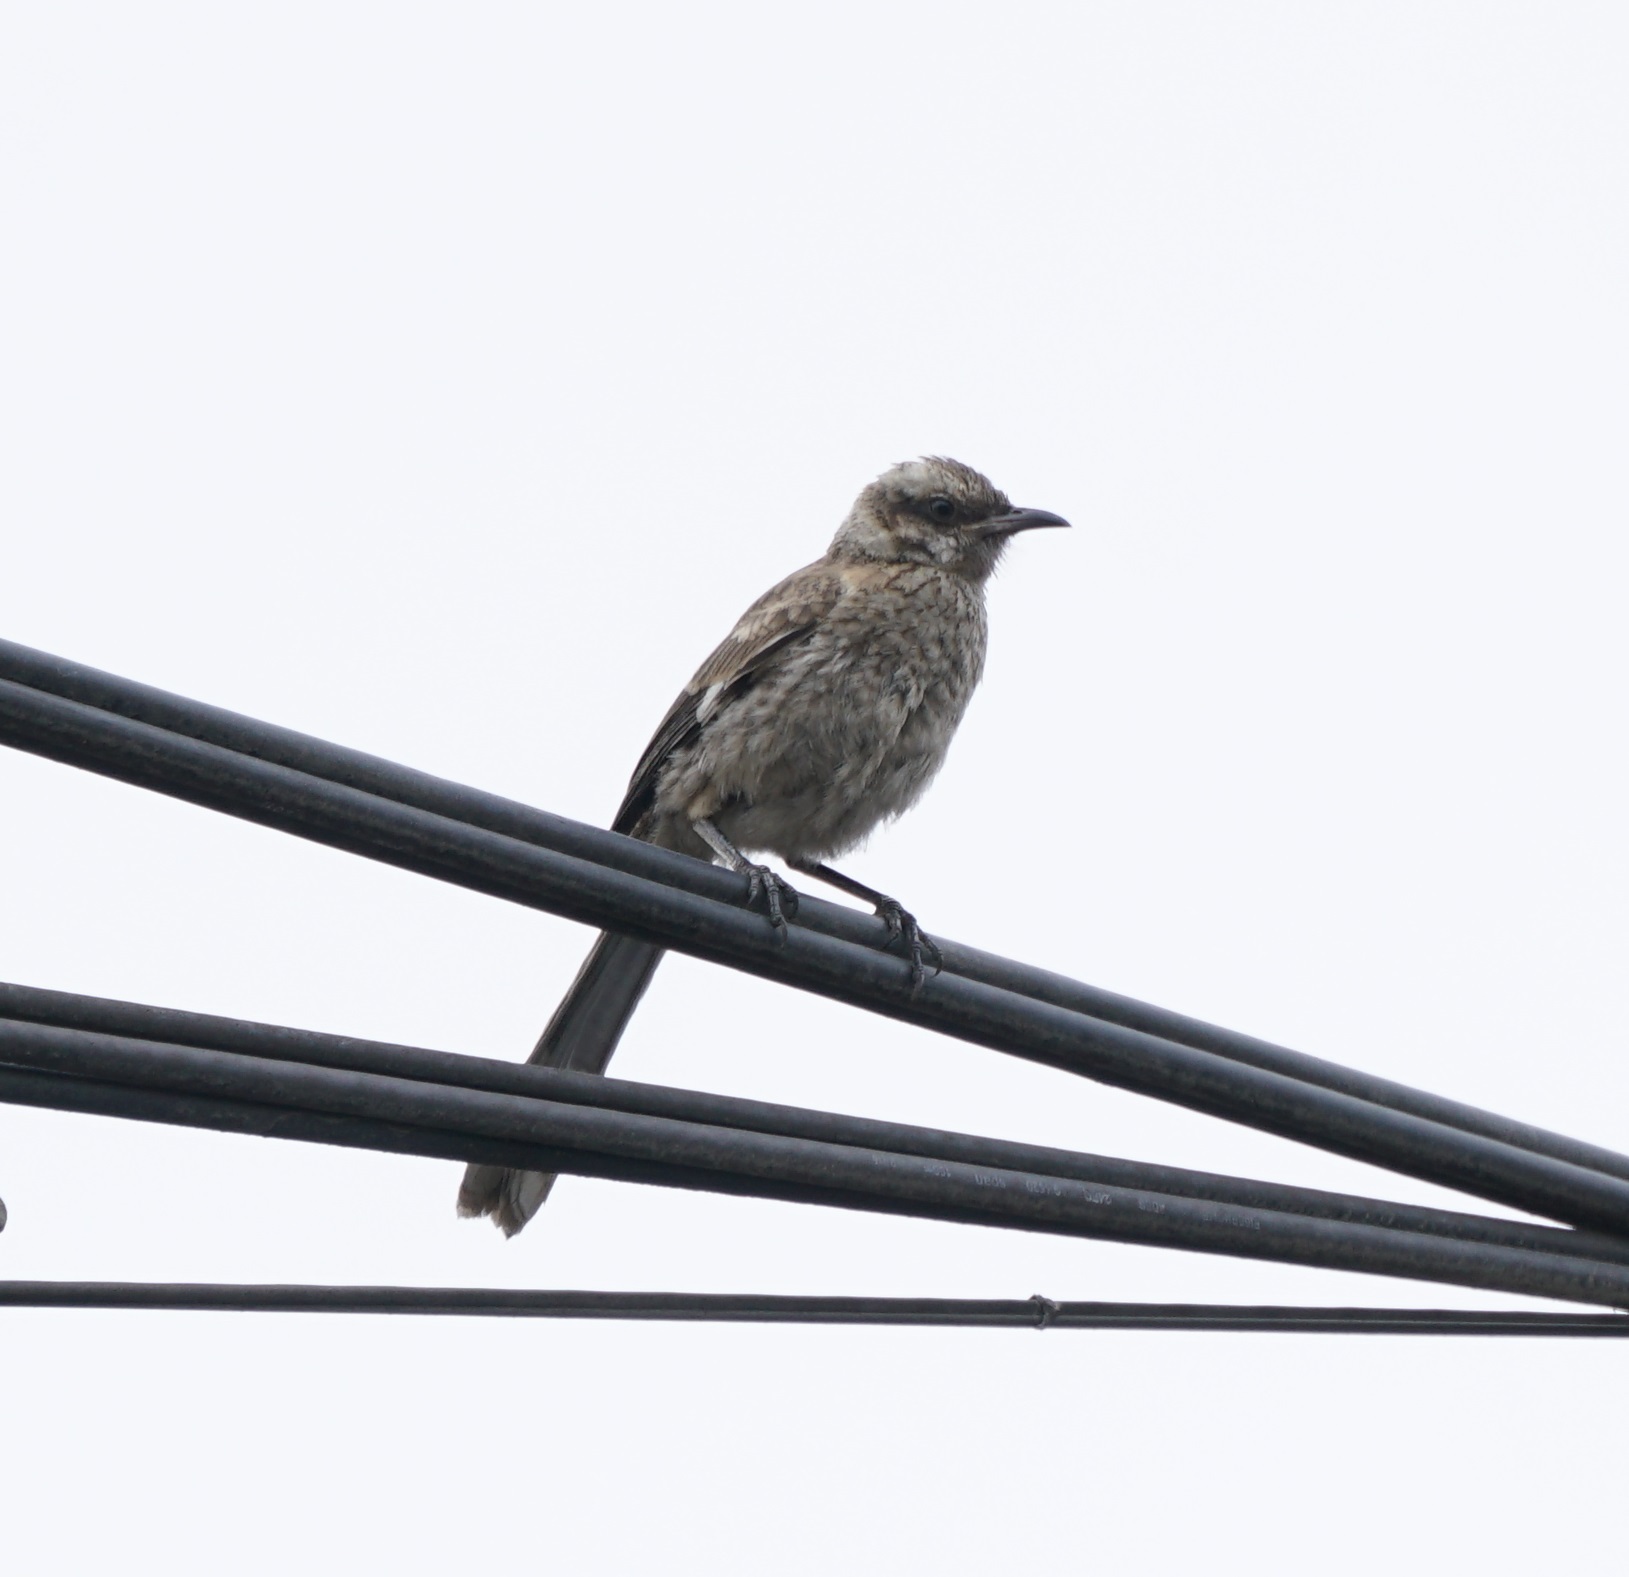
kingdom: Animalia
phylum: Chordata
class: Aves
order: Passeriformes
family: Mimidae
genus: Mimus
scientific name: Mimus longicaudatus
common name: Long-tailed mockingbird
